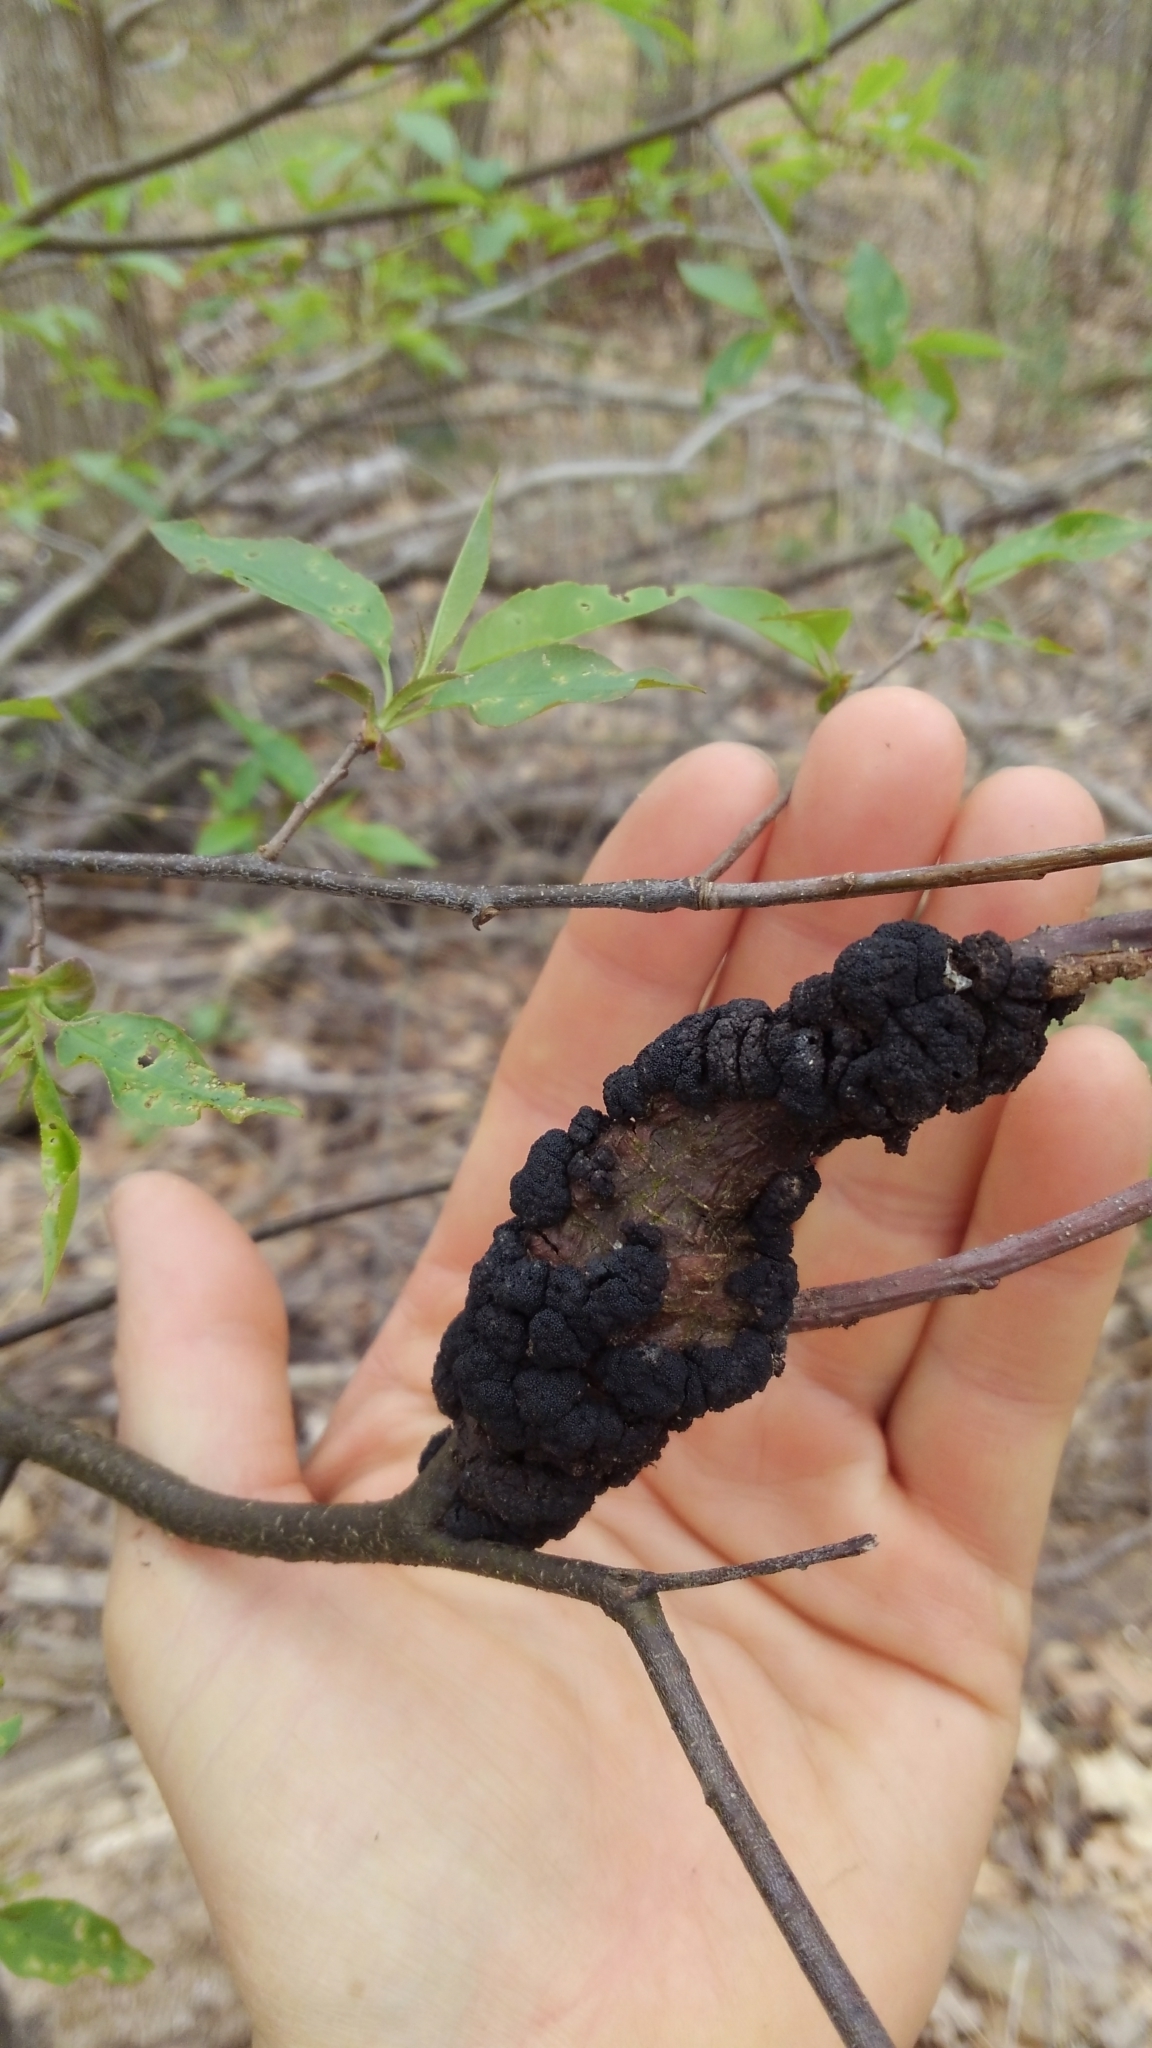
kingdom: Fungi
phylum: Ascomycota
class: Dothideomycetes
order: Venturiales
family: Venturiaceae
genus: Apiosporina
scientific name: Apiosporina morbosa
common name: Black knot
